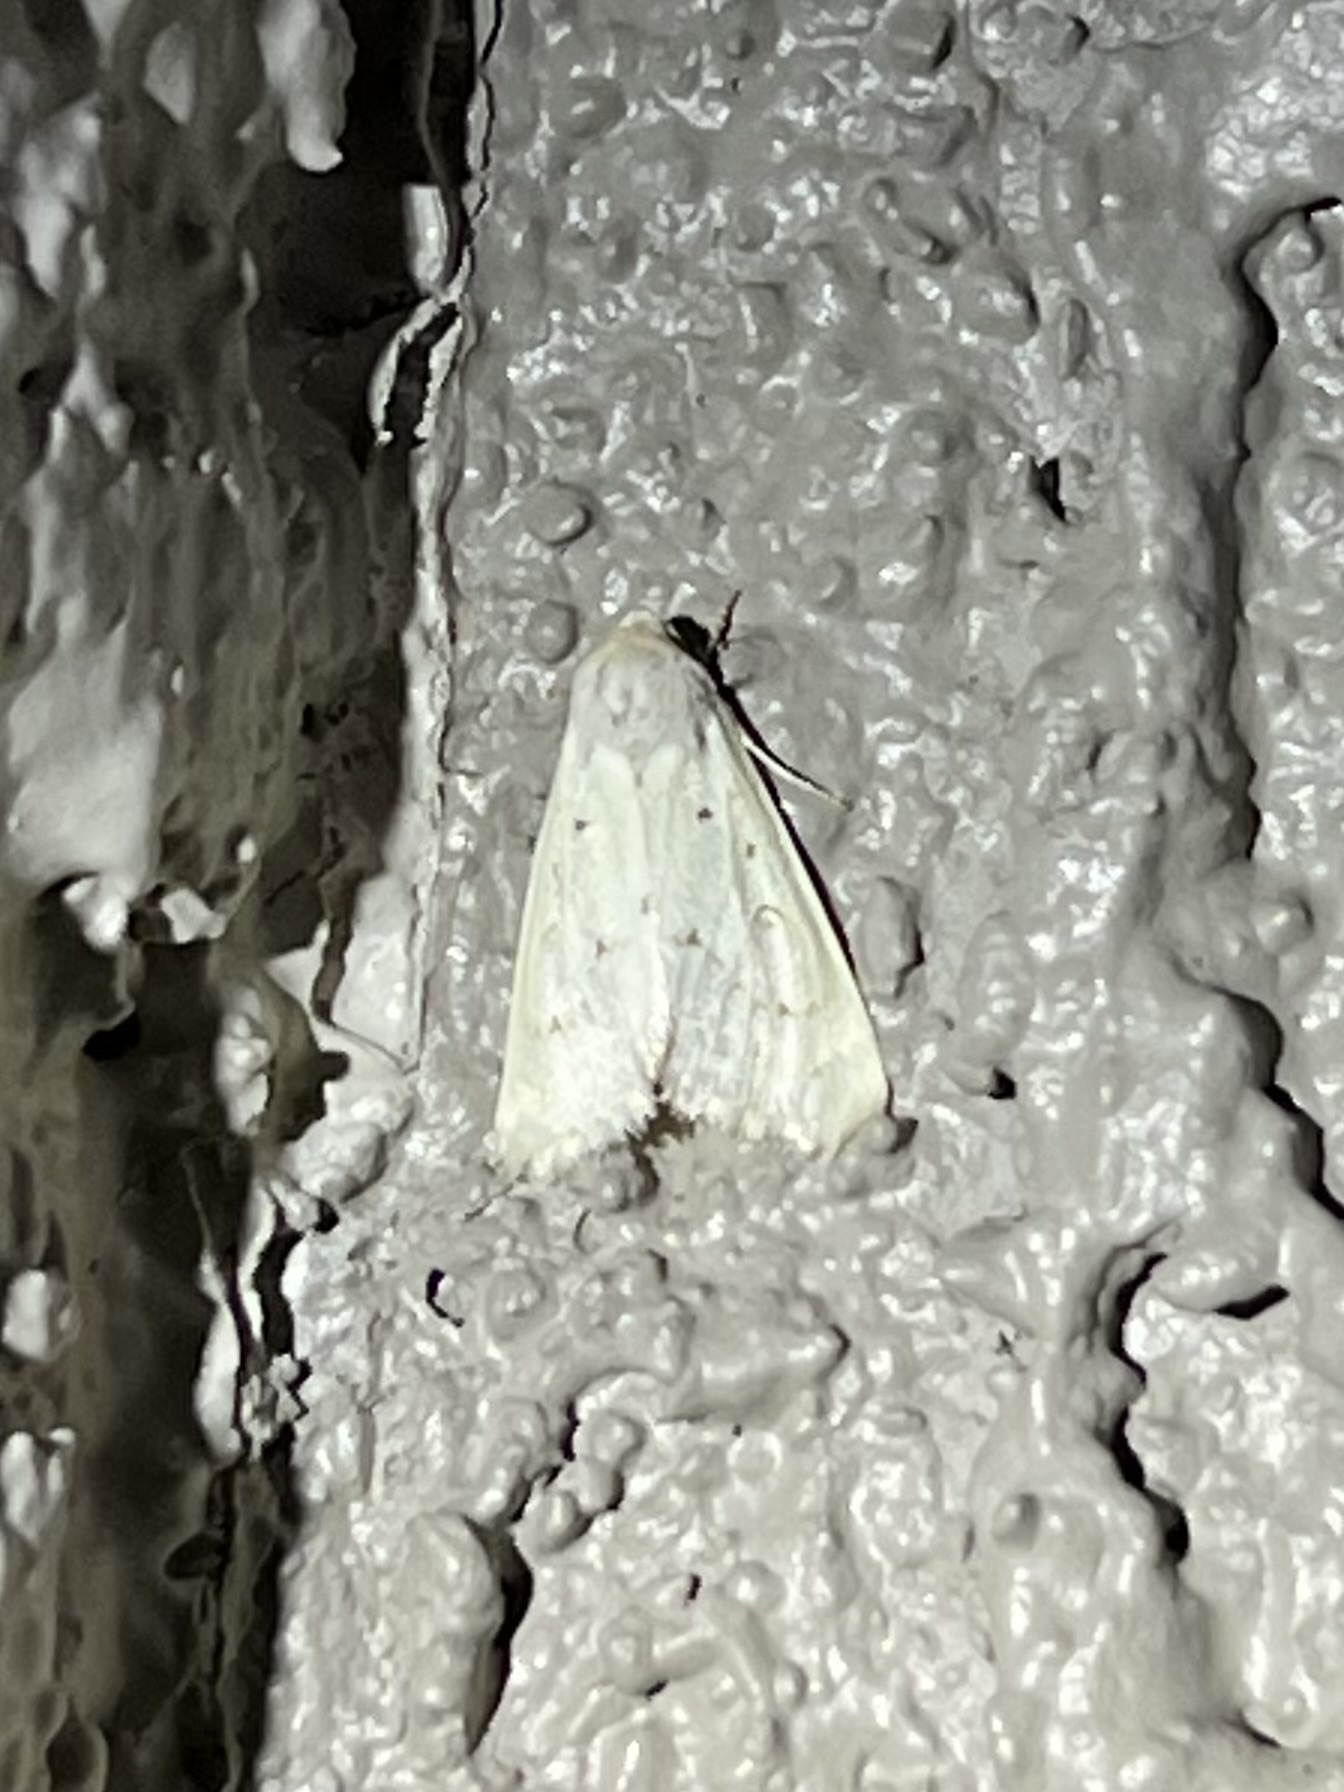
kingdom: Animalia
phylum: Arthropoda
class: Insecta
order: Lepidoptera
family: Noctuidae
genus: Schinia
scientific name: Schinia luxa
